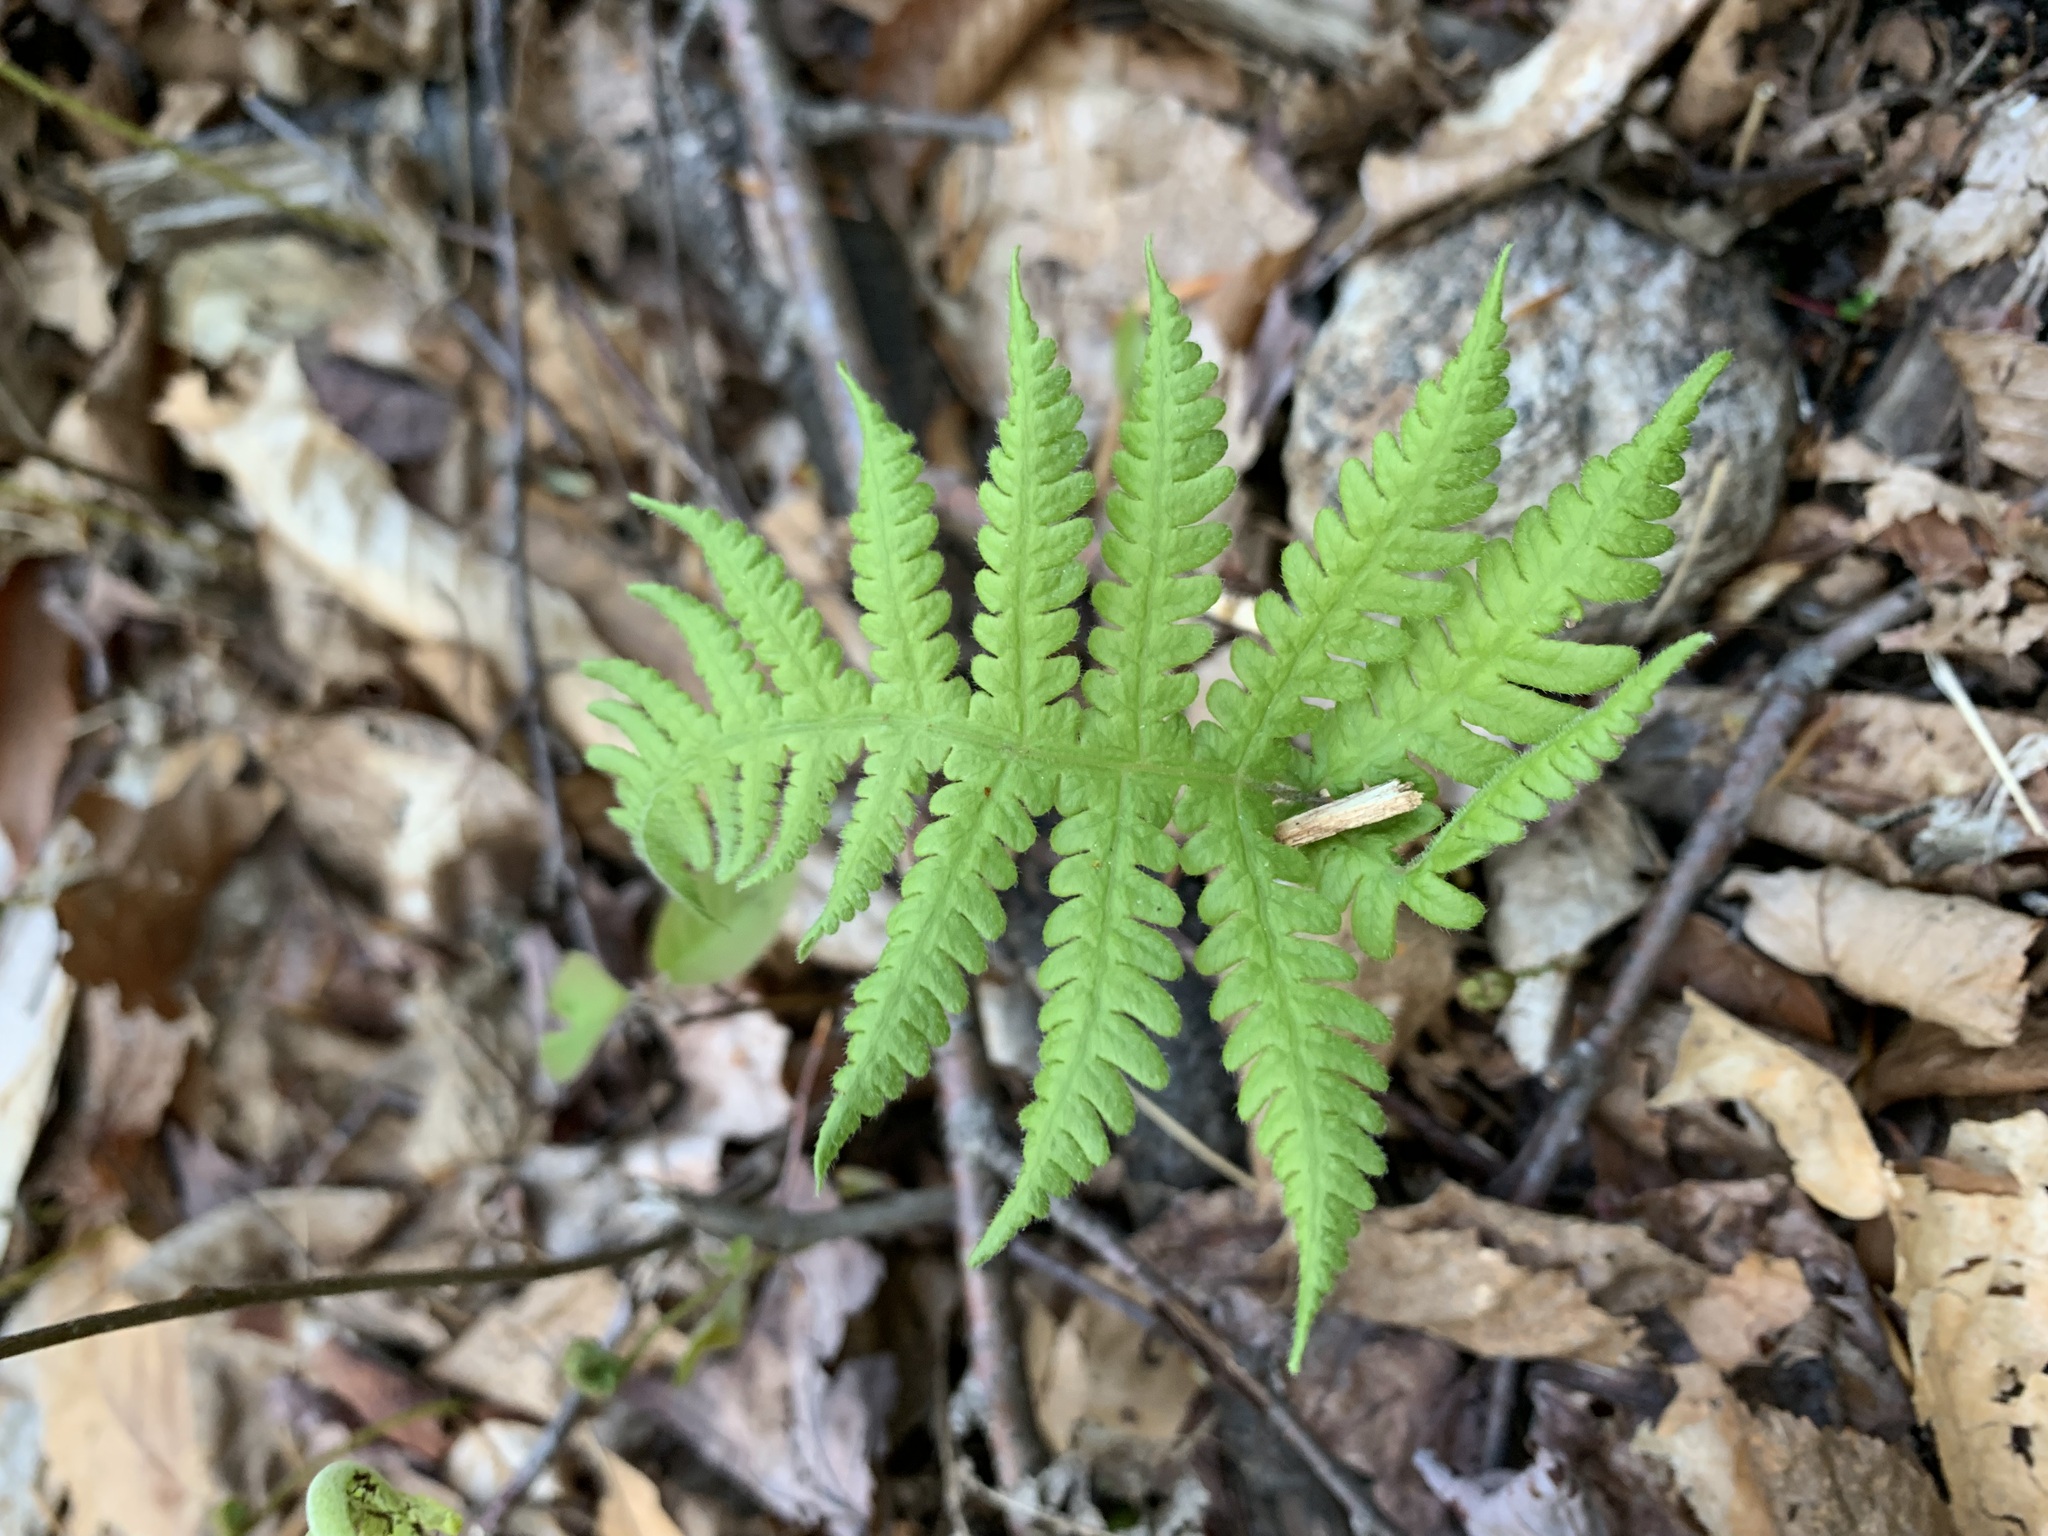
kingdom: Plantae
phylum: Tracheophyta
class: Polypodiopsida
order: Polypodiales
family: Thelypteridaceae
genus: Phegopteris
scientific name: Phegopteris connectilis
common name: Beech fern
